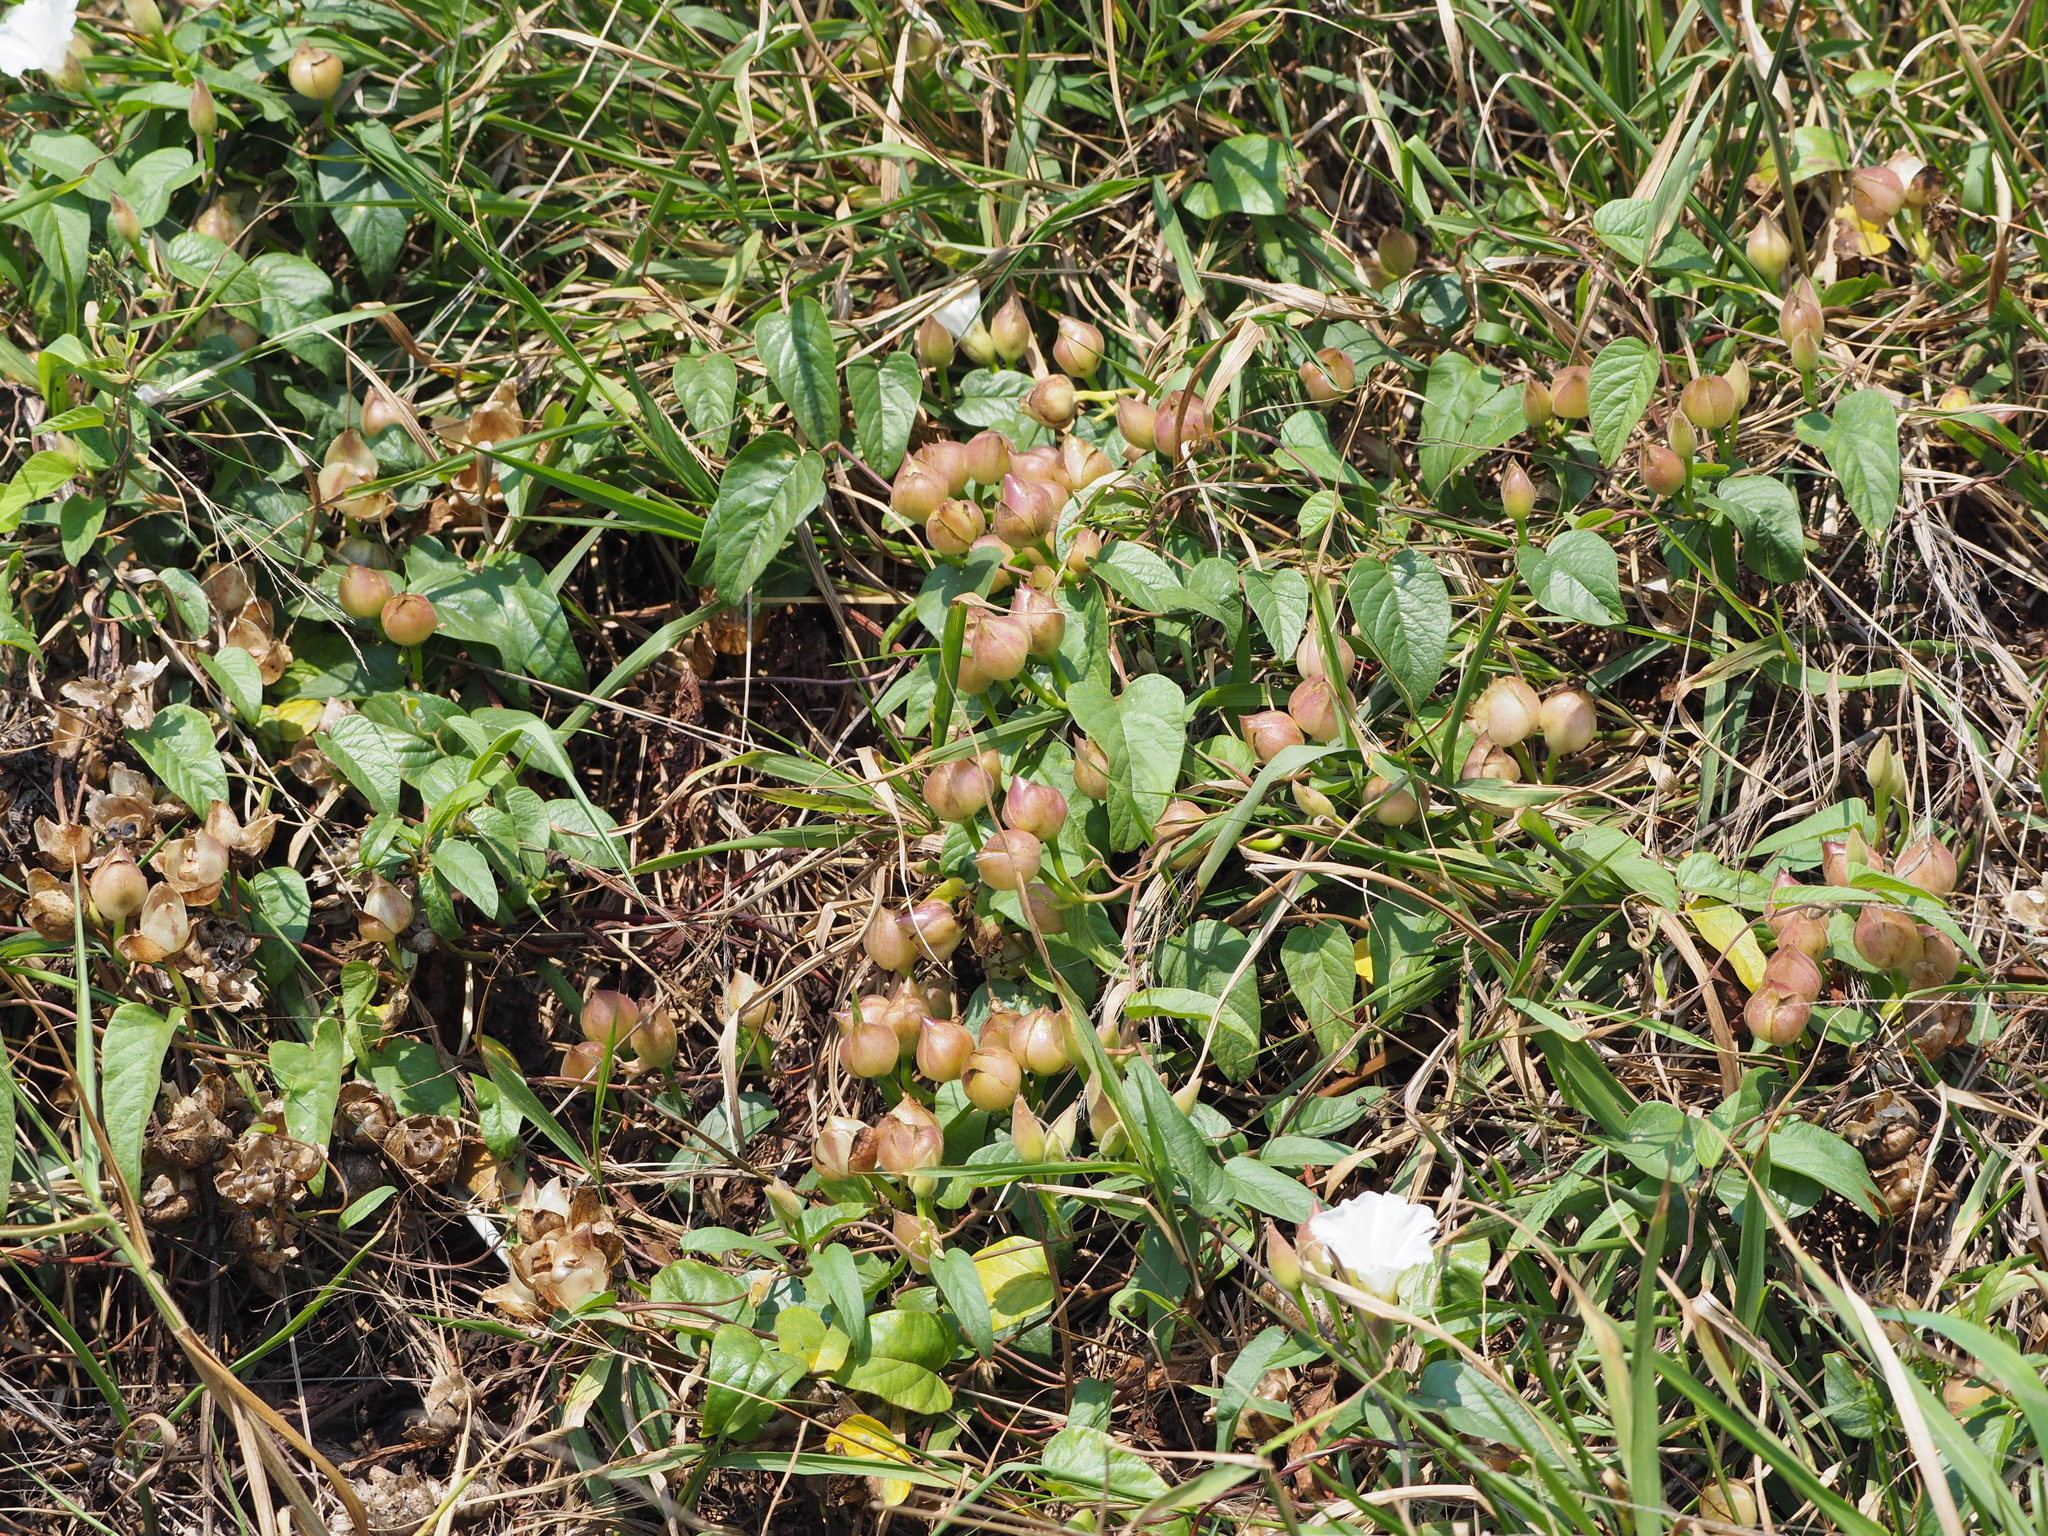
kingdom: Plantae
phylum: Tracheophyta
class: Magnoliopsida
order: Solanales
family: Convolvulaceae
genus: Operculina
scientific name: Operculina turpethum
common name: Transparent wood-rose
